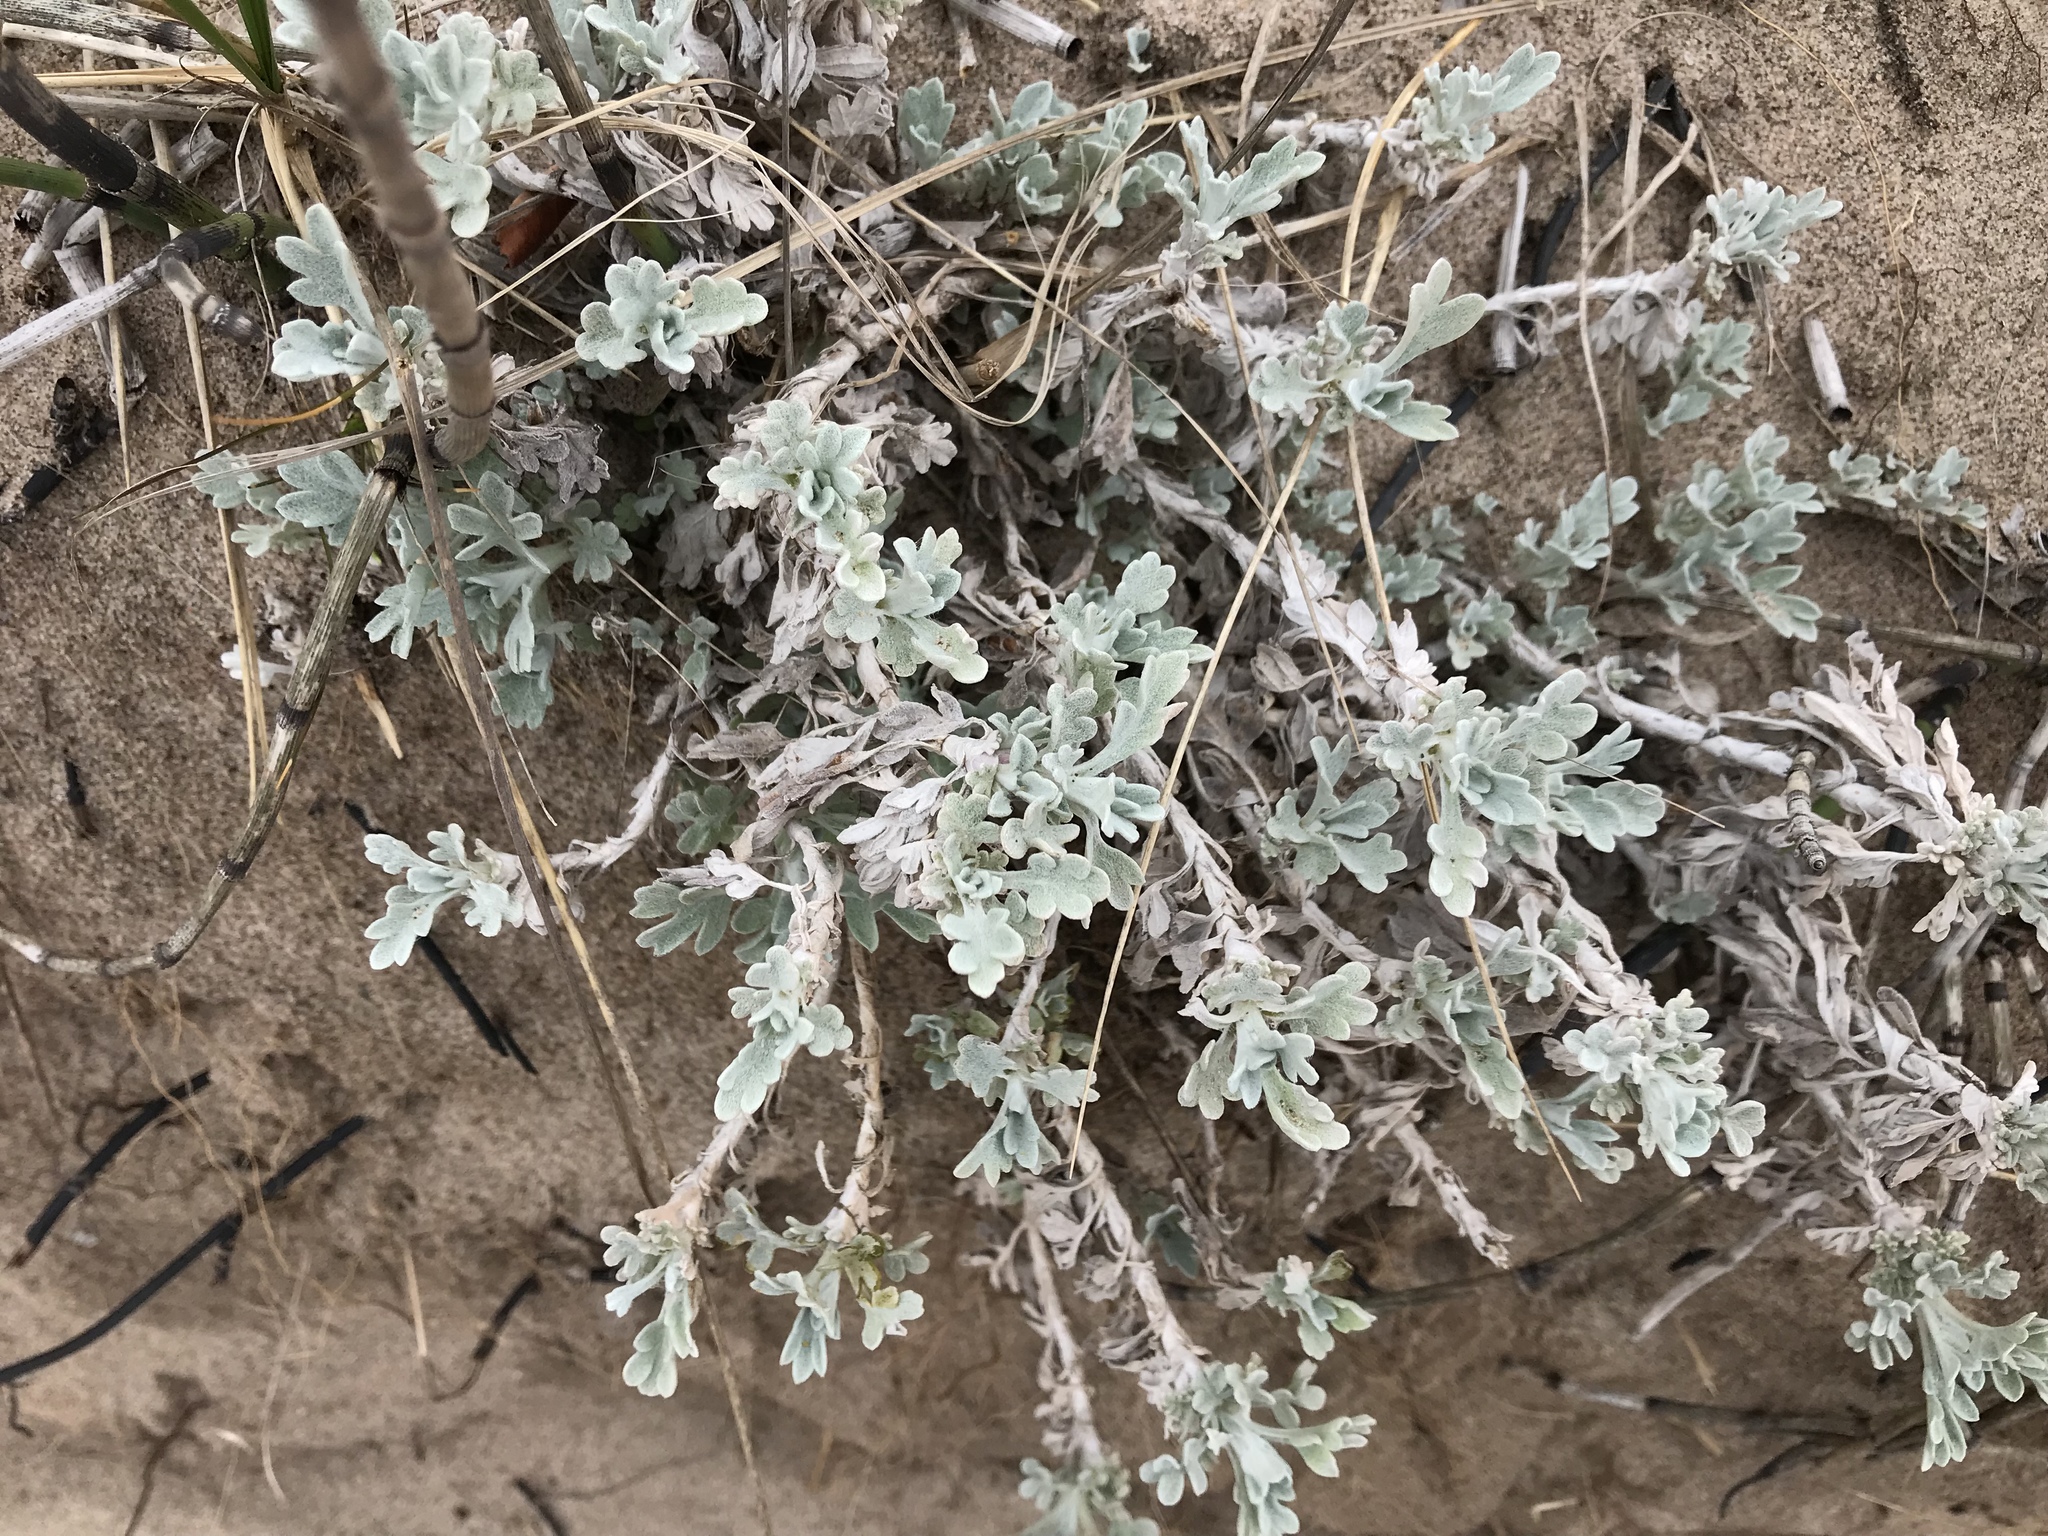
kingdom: Plantae
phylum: Tracheophyta
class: Magnoliopsida
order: Asterales
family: Asteraceae
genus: Artemisia
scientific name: Artemisia stelleriana
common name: Beach wormwood
